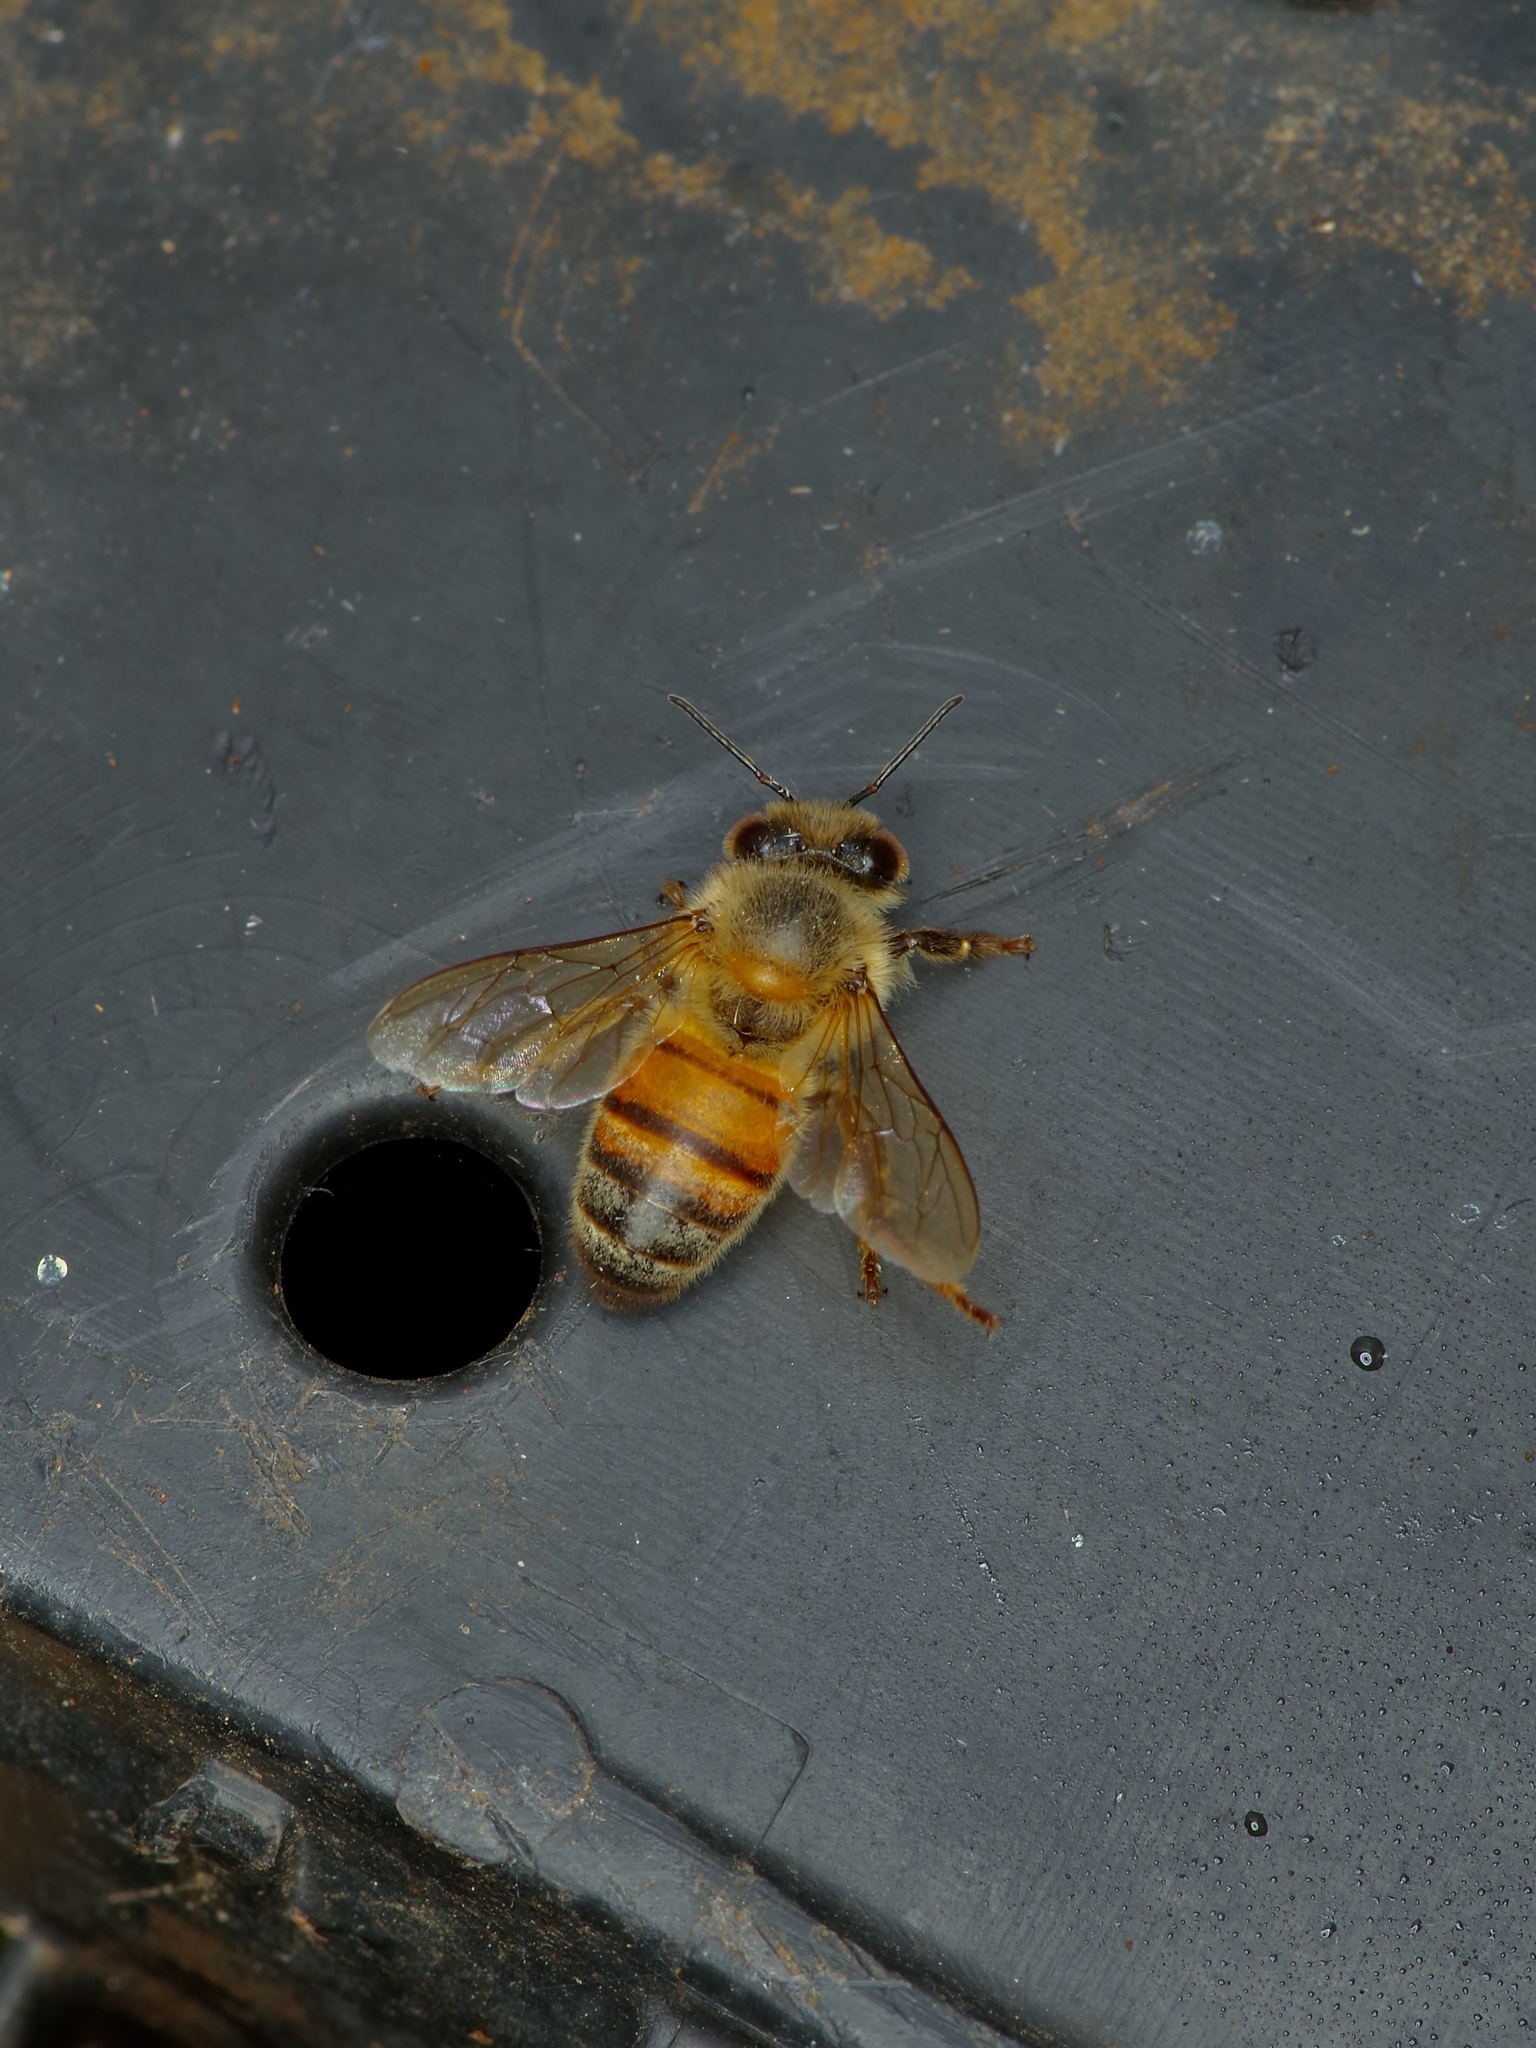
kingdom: Animalia
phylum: Arthropoda
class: Insecta
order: Hymenoptera
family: Apidae
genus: Apis
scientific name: Apis mellifera
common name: Honey bee
